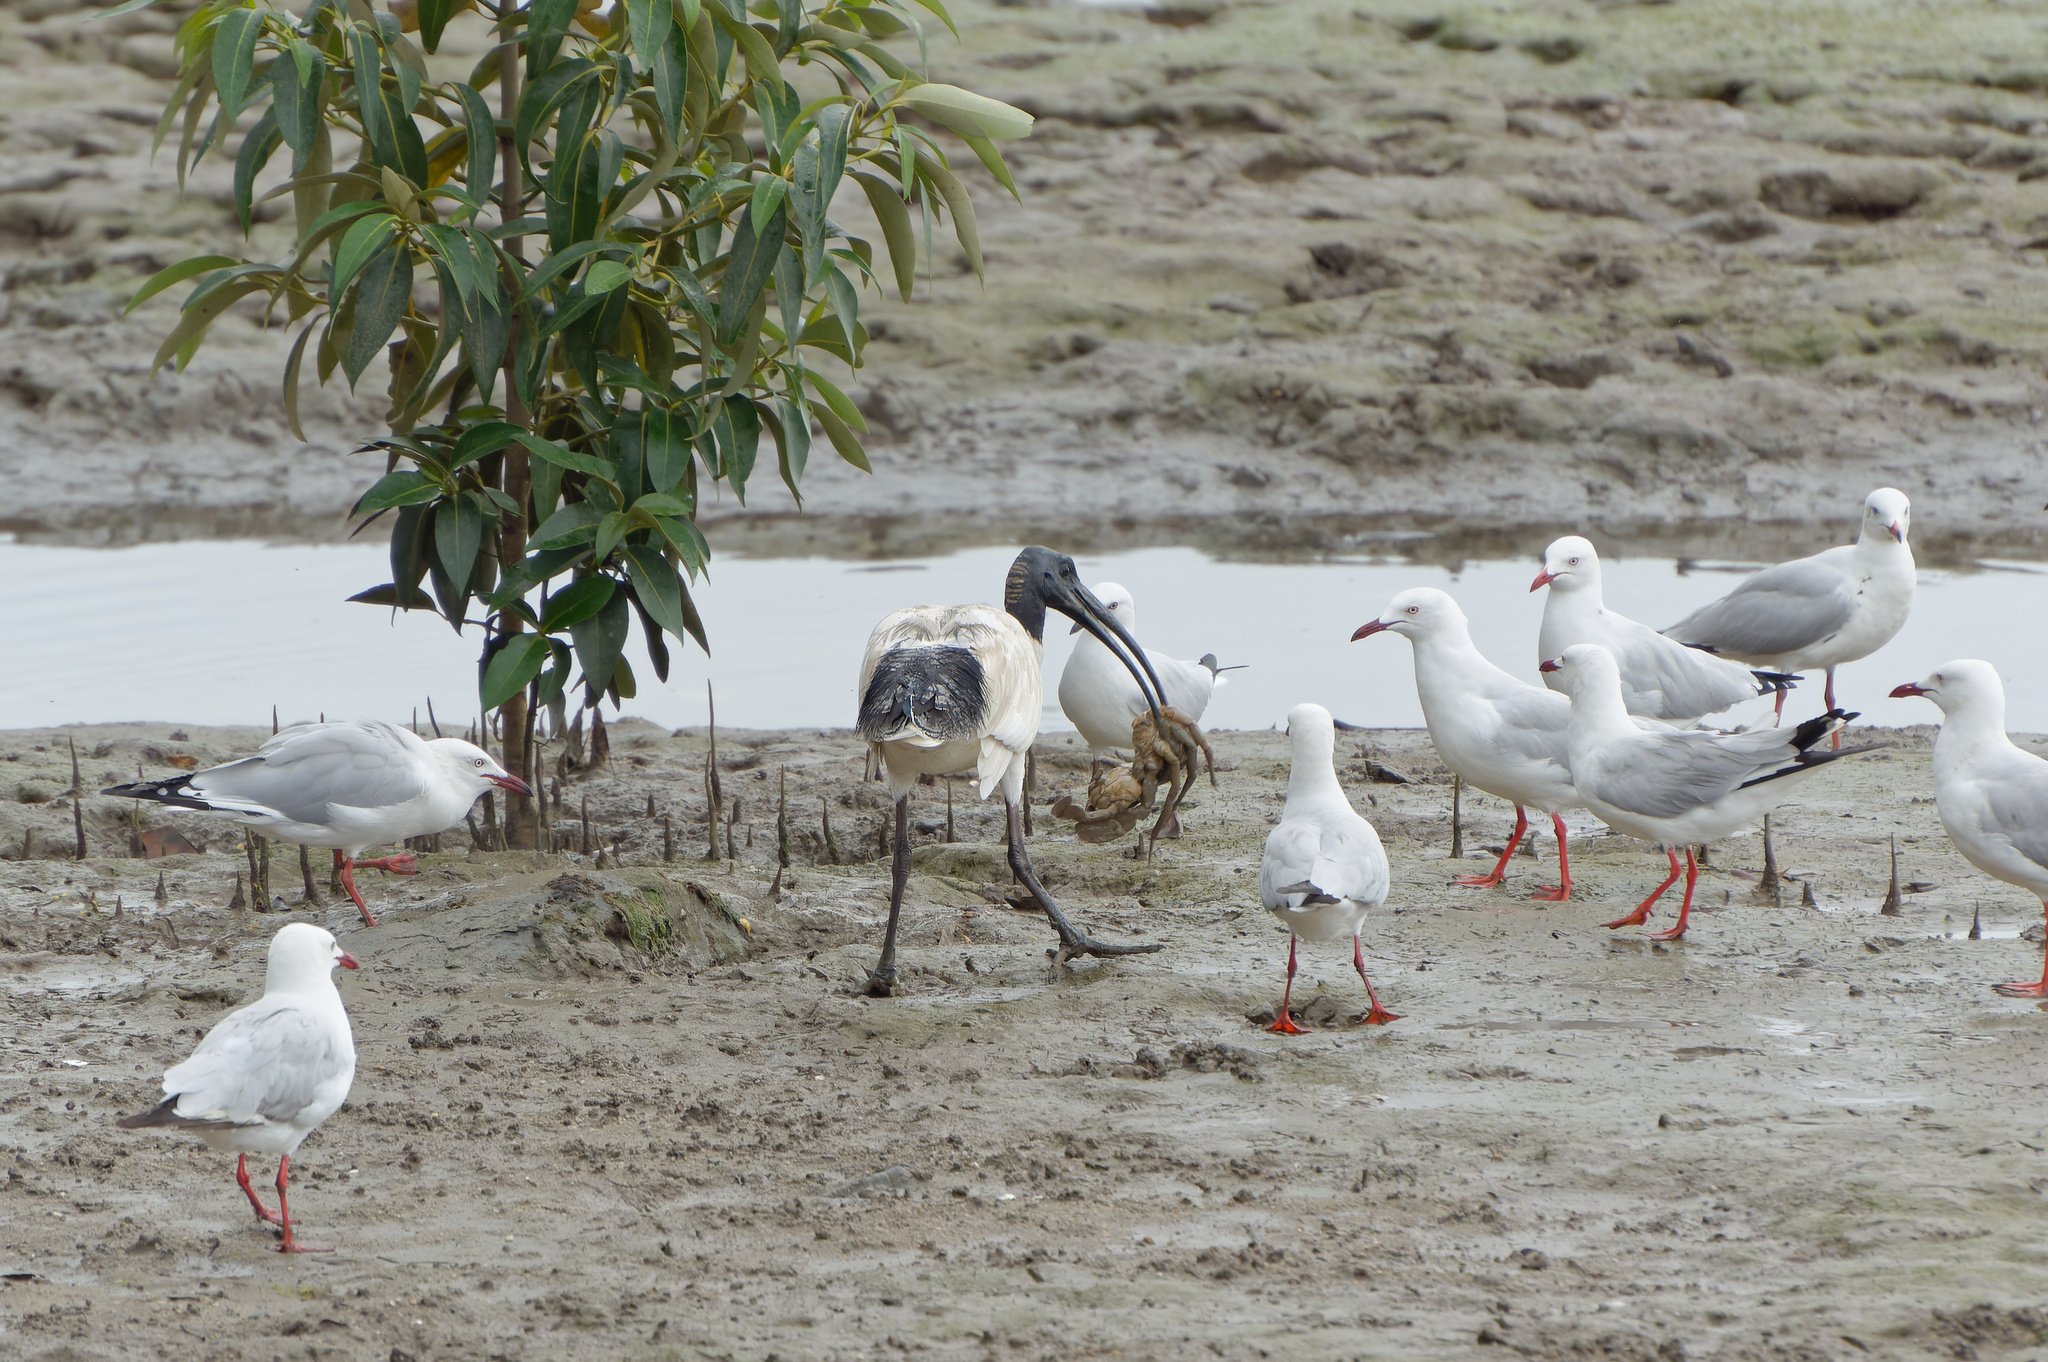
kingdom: Animalia
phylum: Chordata
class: Aves
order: Pelecaniformes
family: Threskiornithidae
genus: Threskiornis
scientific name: Threskiornis molucca
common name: Australian white ibis
